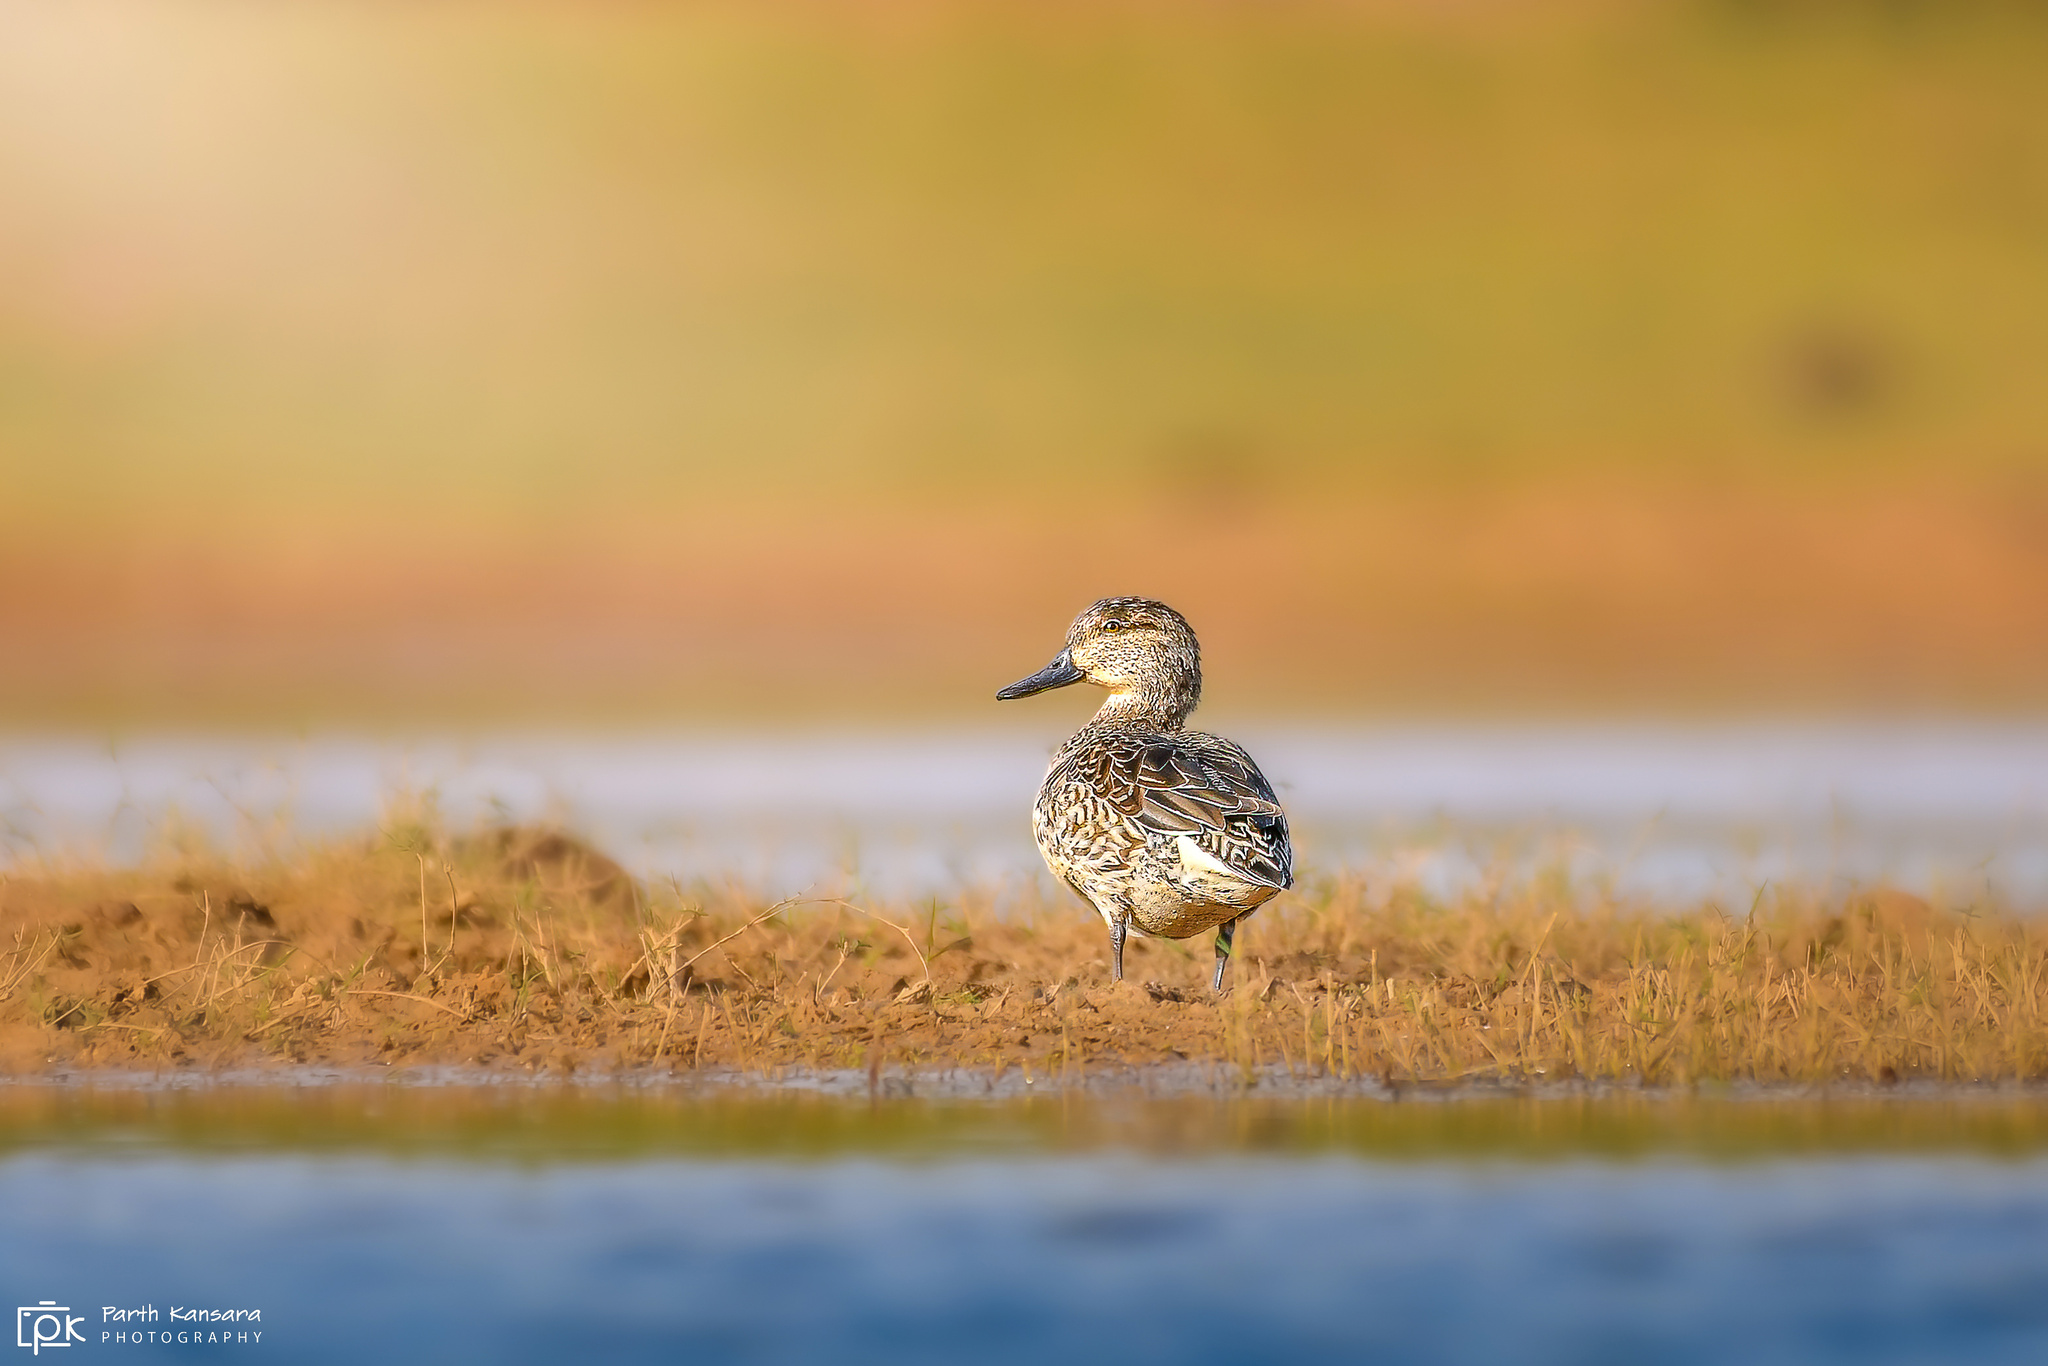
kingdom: Animalia
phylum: Chordata
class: Aves
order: Anseriformes
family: Anatidae
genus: Anas
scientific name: Anas crecca
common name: Eurasian teal
